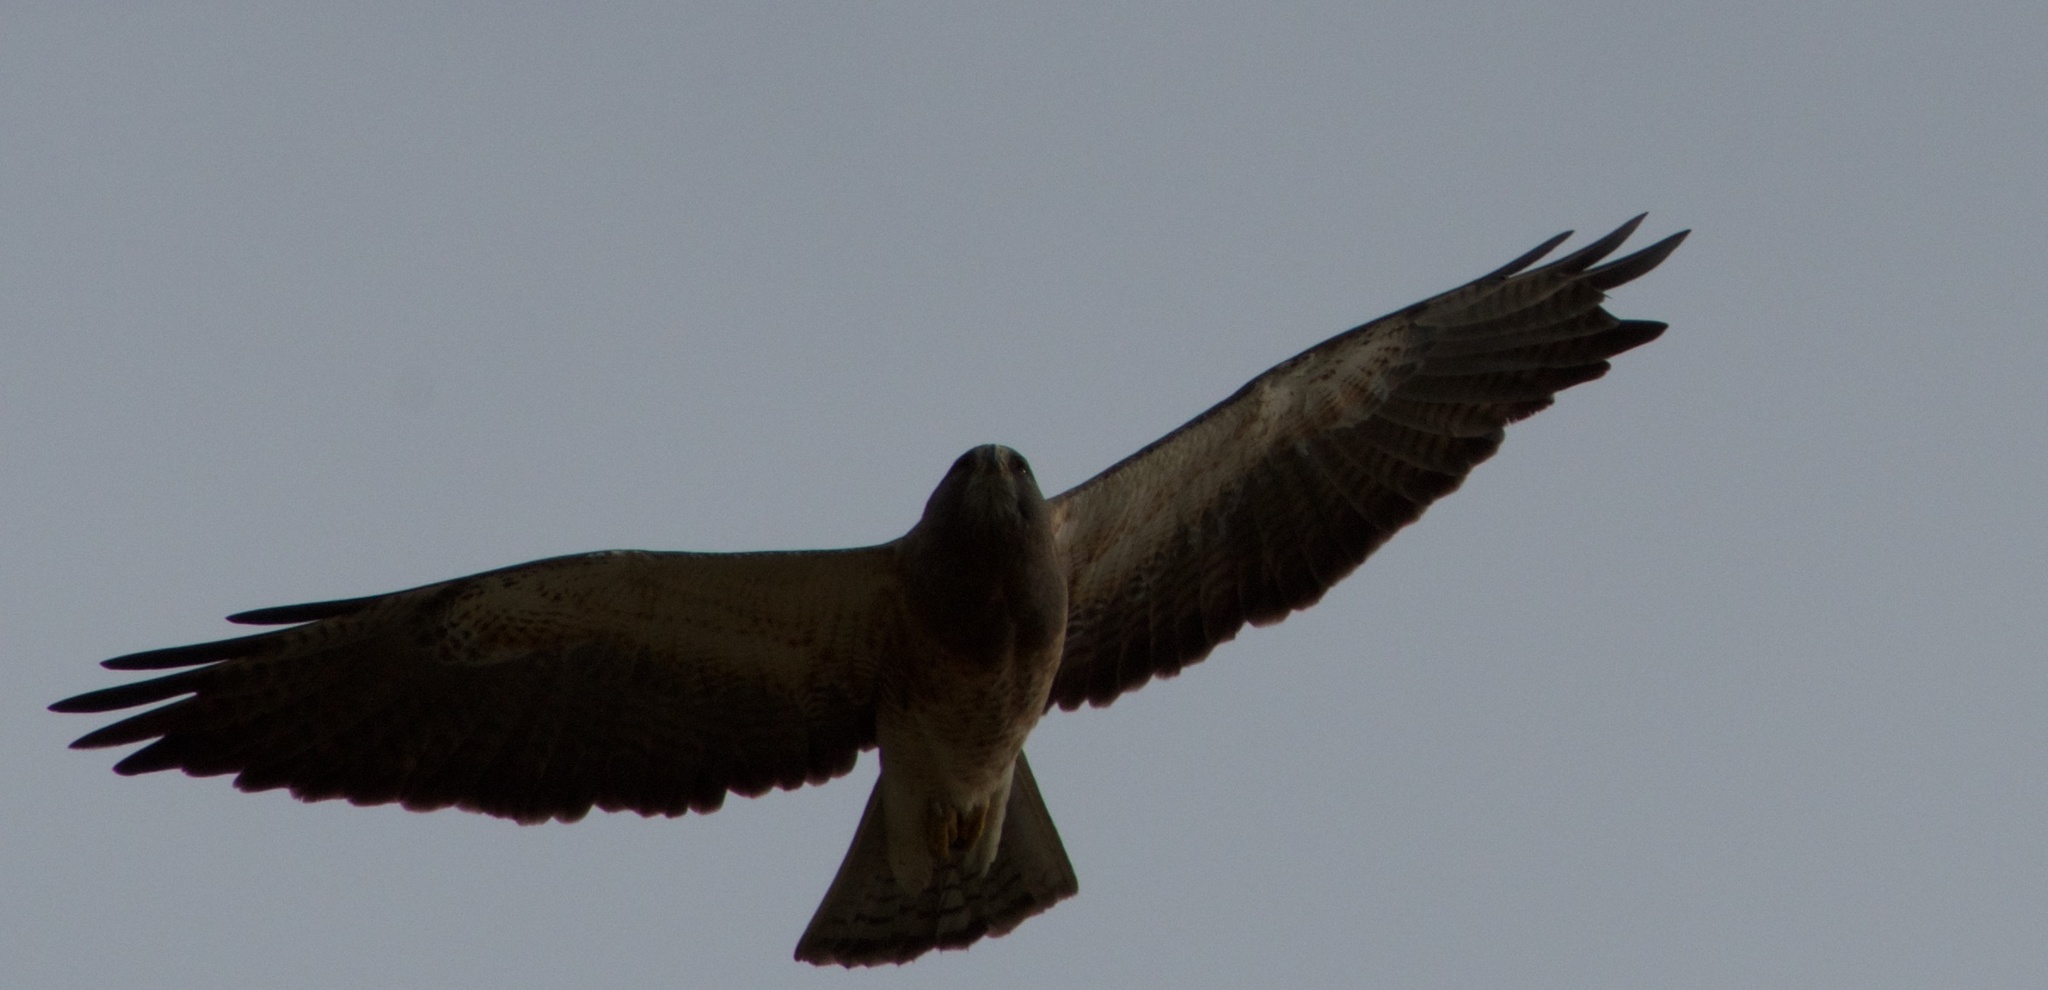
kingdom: Animalia
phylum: Chordata
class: Aves
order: Accipitriformes
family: Accipitridae
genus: Buteo
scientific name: Buteo swainsoni
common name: Swainson's hawk
